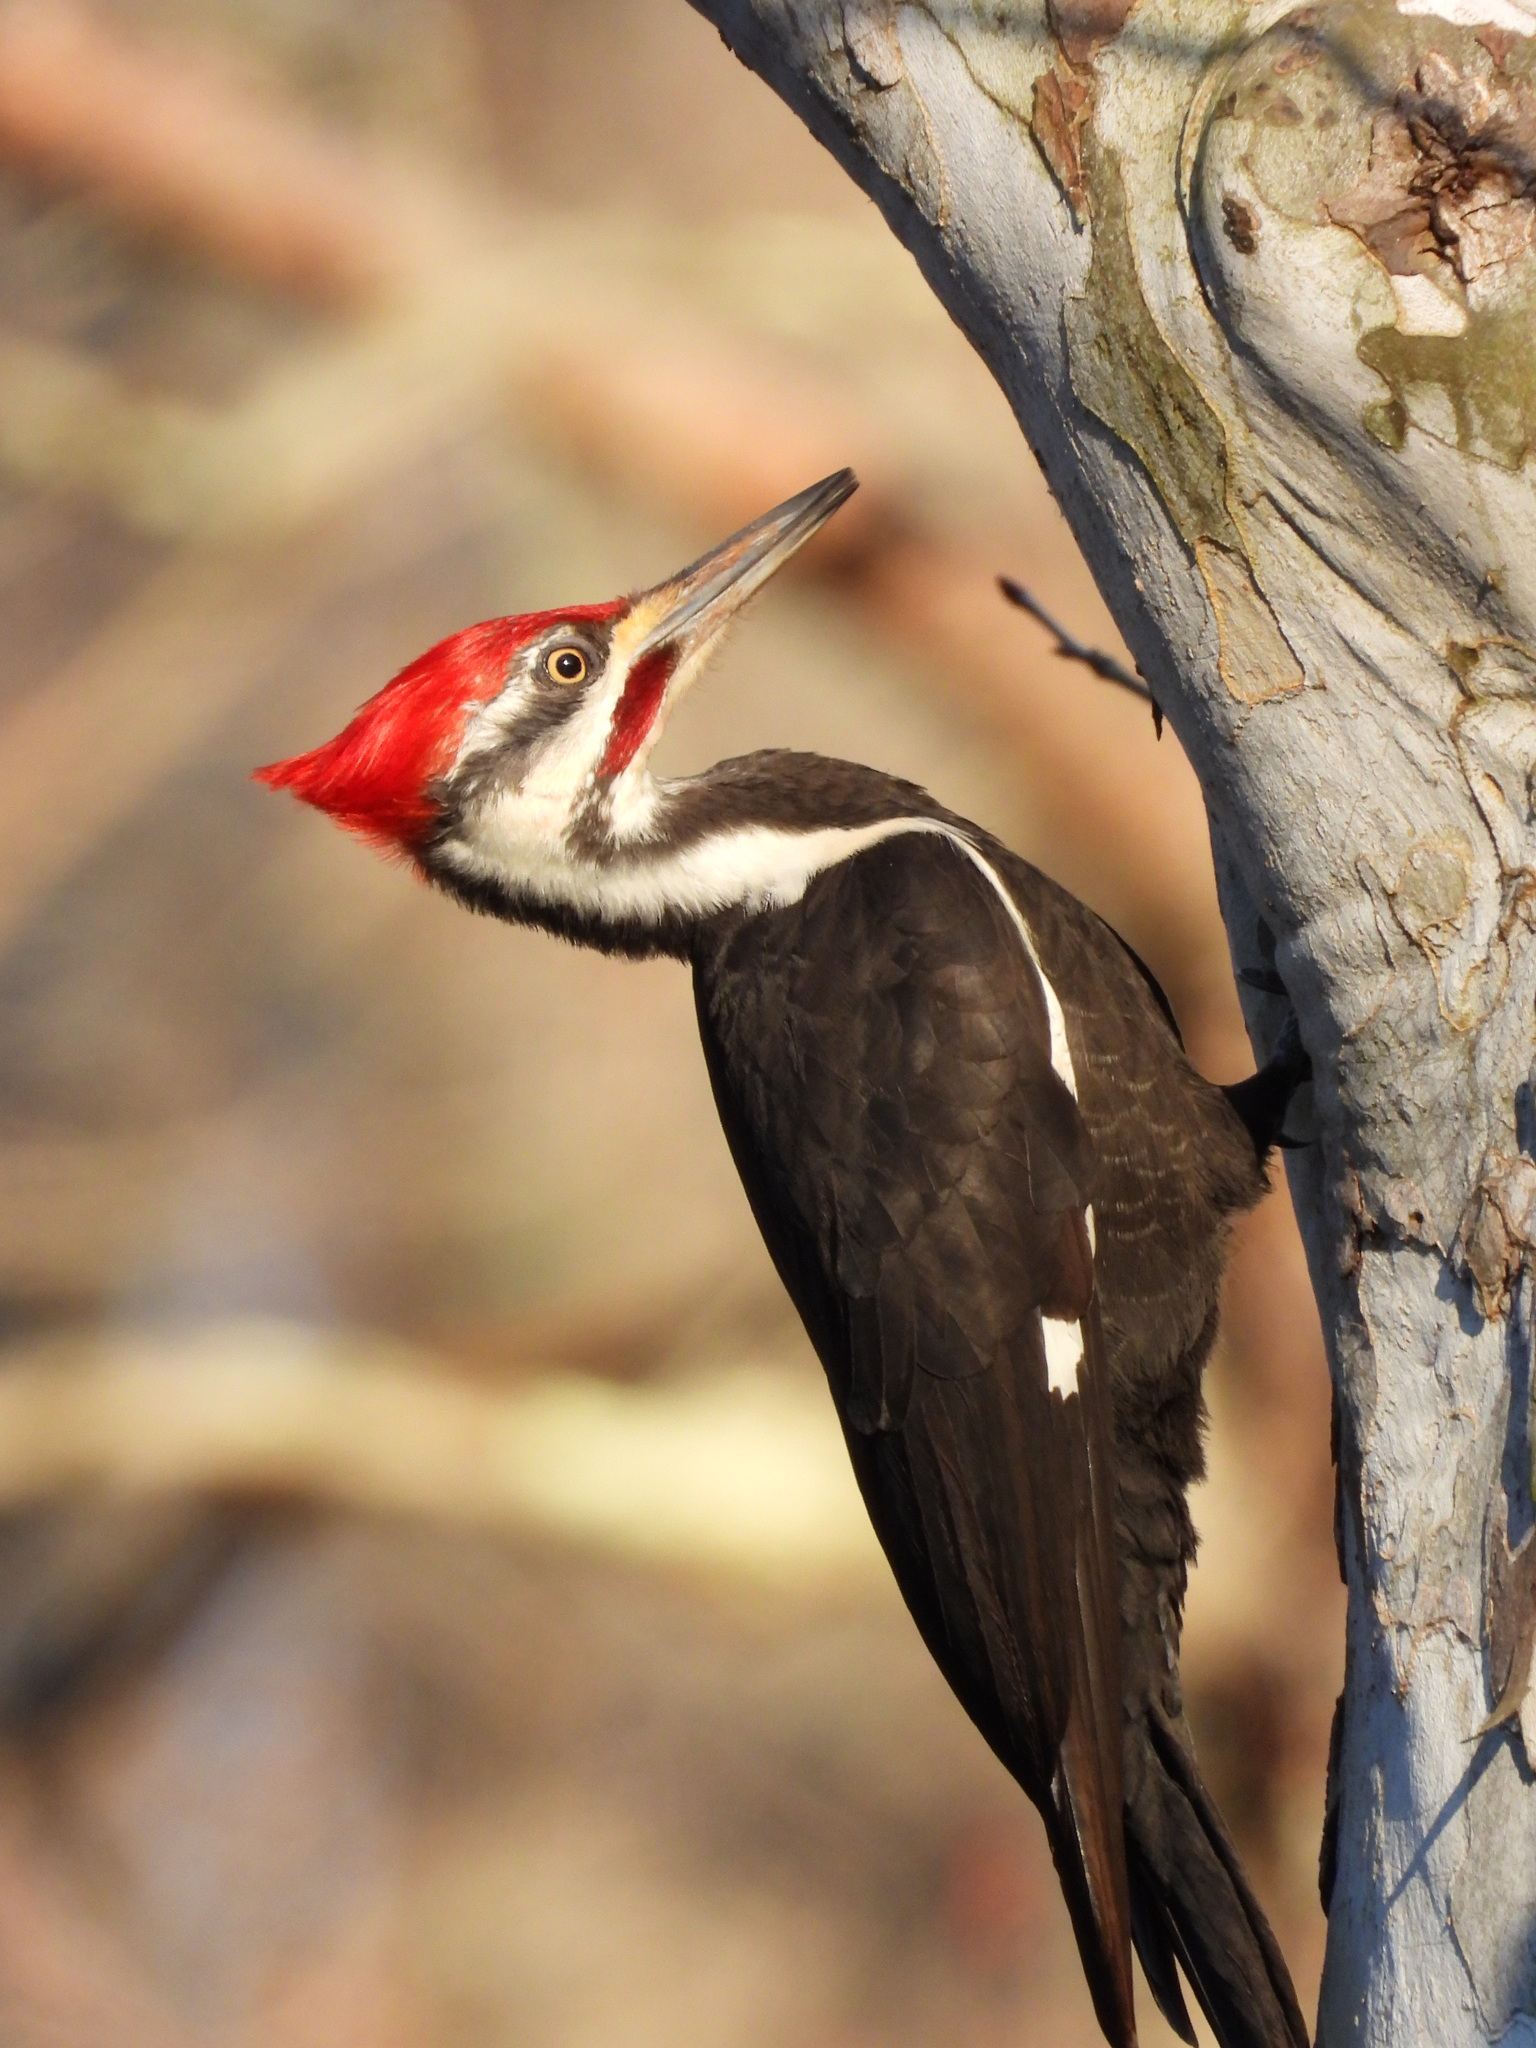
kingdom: Animalia
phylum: Chordata
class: Aves
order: Piciformes
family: Picidae
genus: Dryocopus
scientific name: Dryocopus pileatus
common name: Pileated woodpecker
